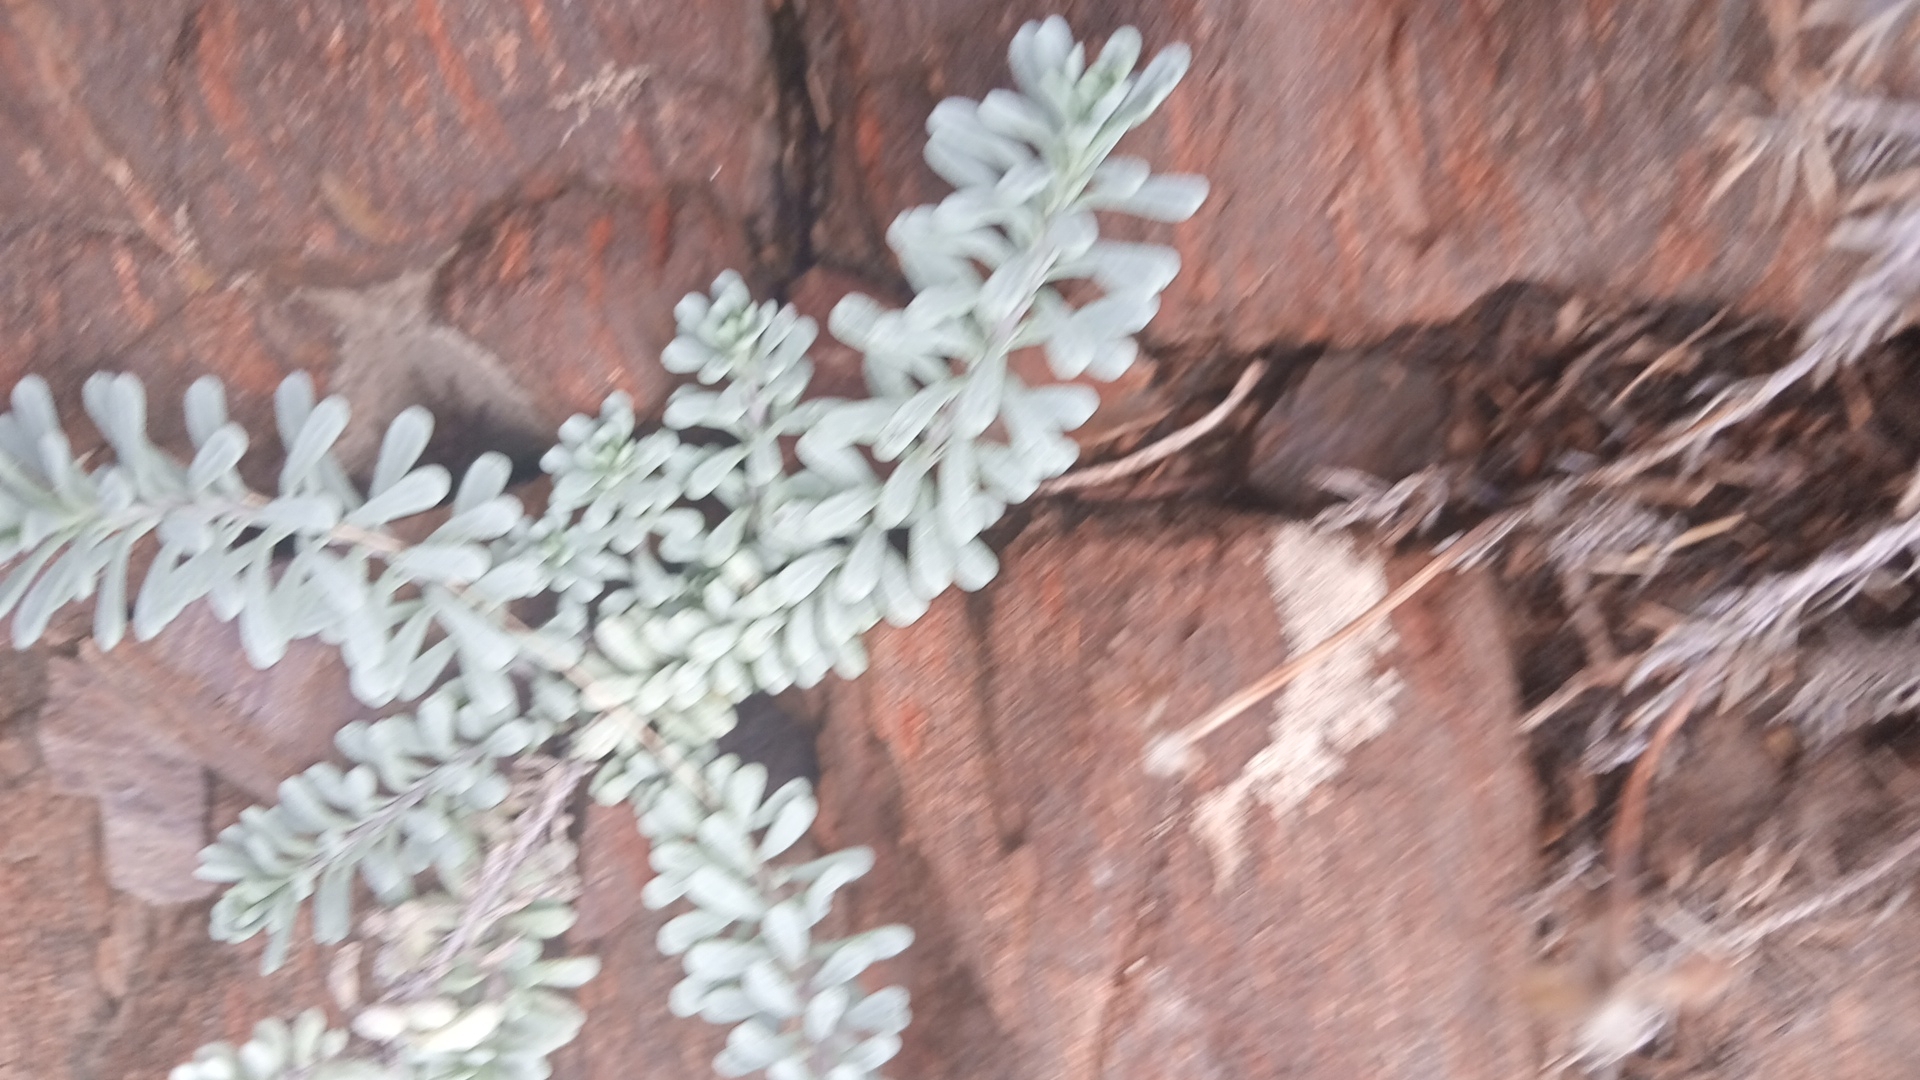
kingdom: Plantae
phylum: Tracheophyta
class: Magnoliopsida
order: Asterales
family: Asteraceae
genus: Porophyllum
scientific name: Porophyllum linifolium
